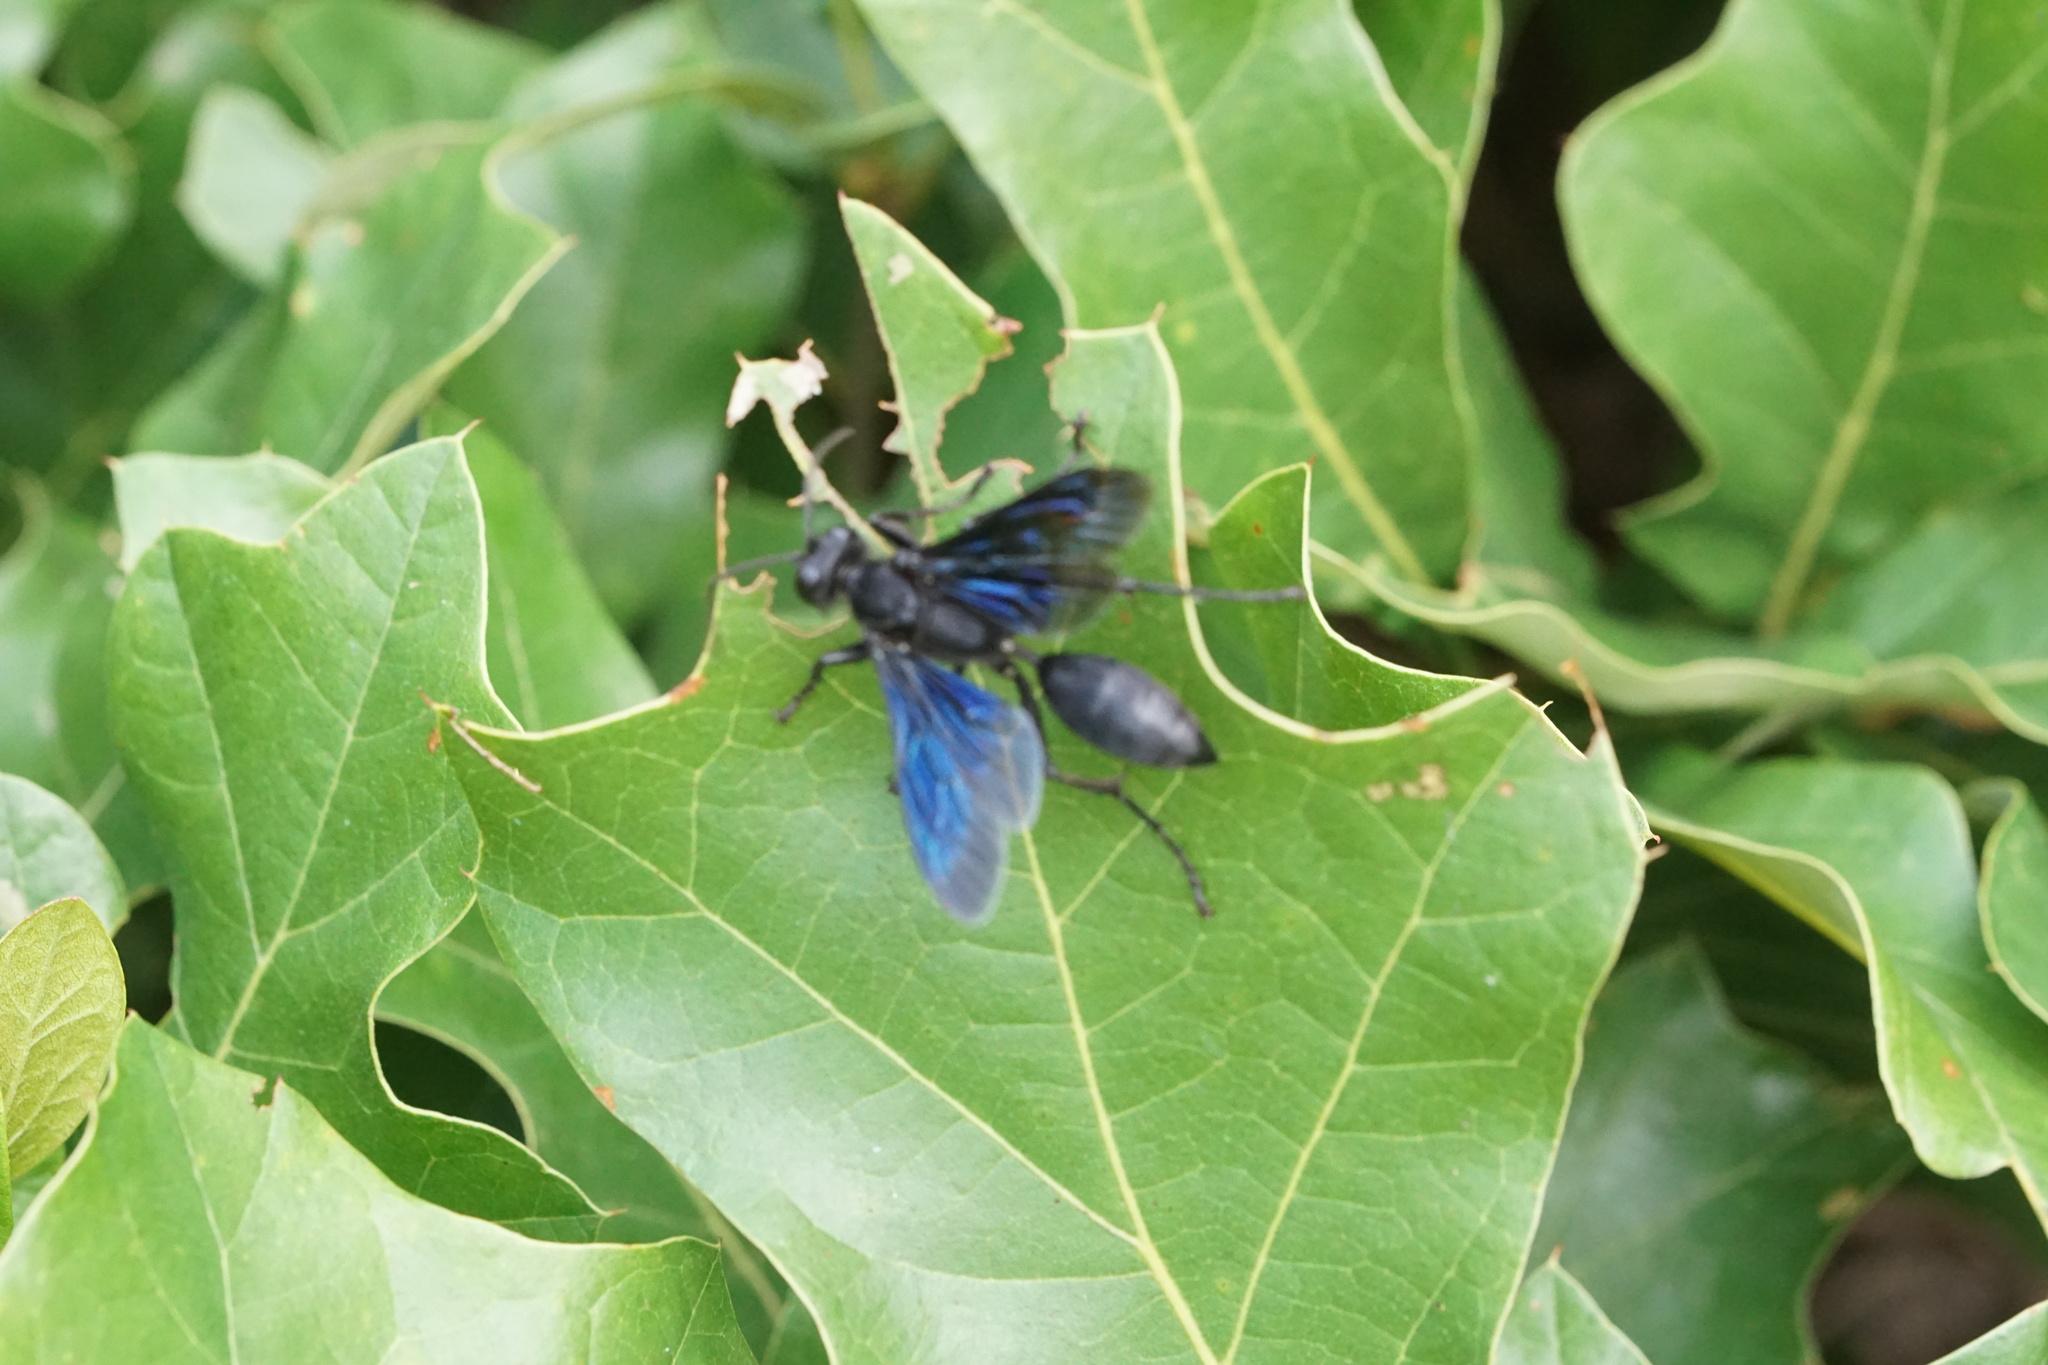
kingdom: Animalia
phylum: Arthropoda
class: Insecta
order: Hymenoptera
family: Sphecidae
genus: Sphex
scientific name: Sphex pensylvanicus
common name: Great black digger wasp
